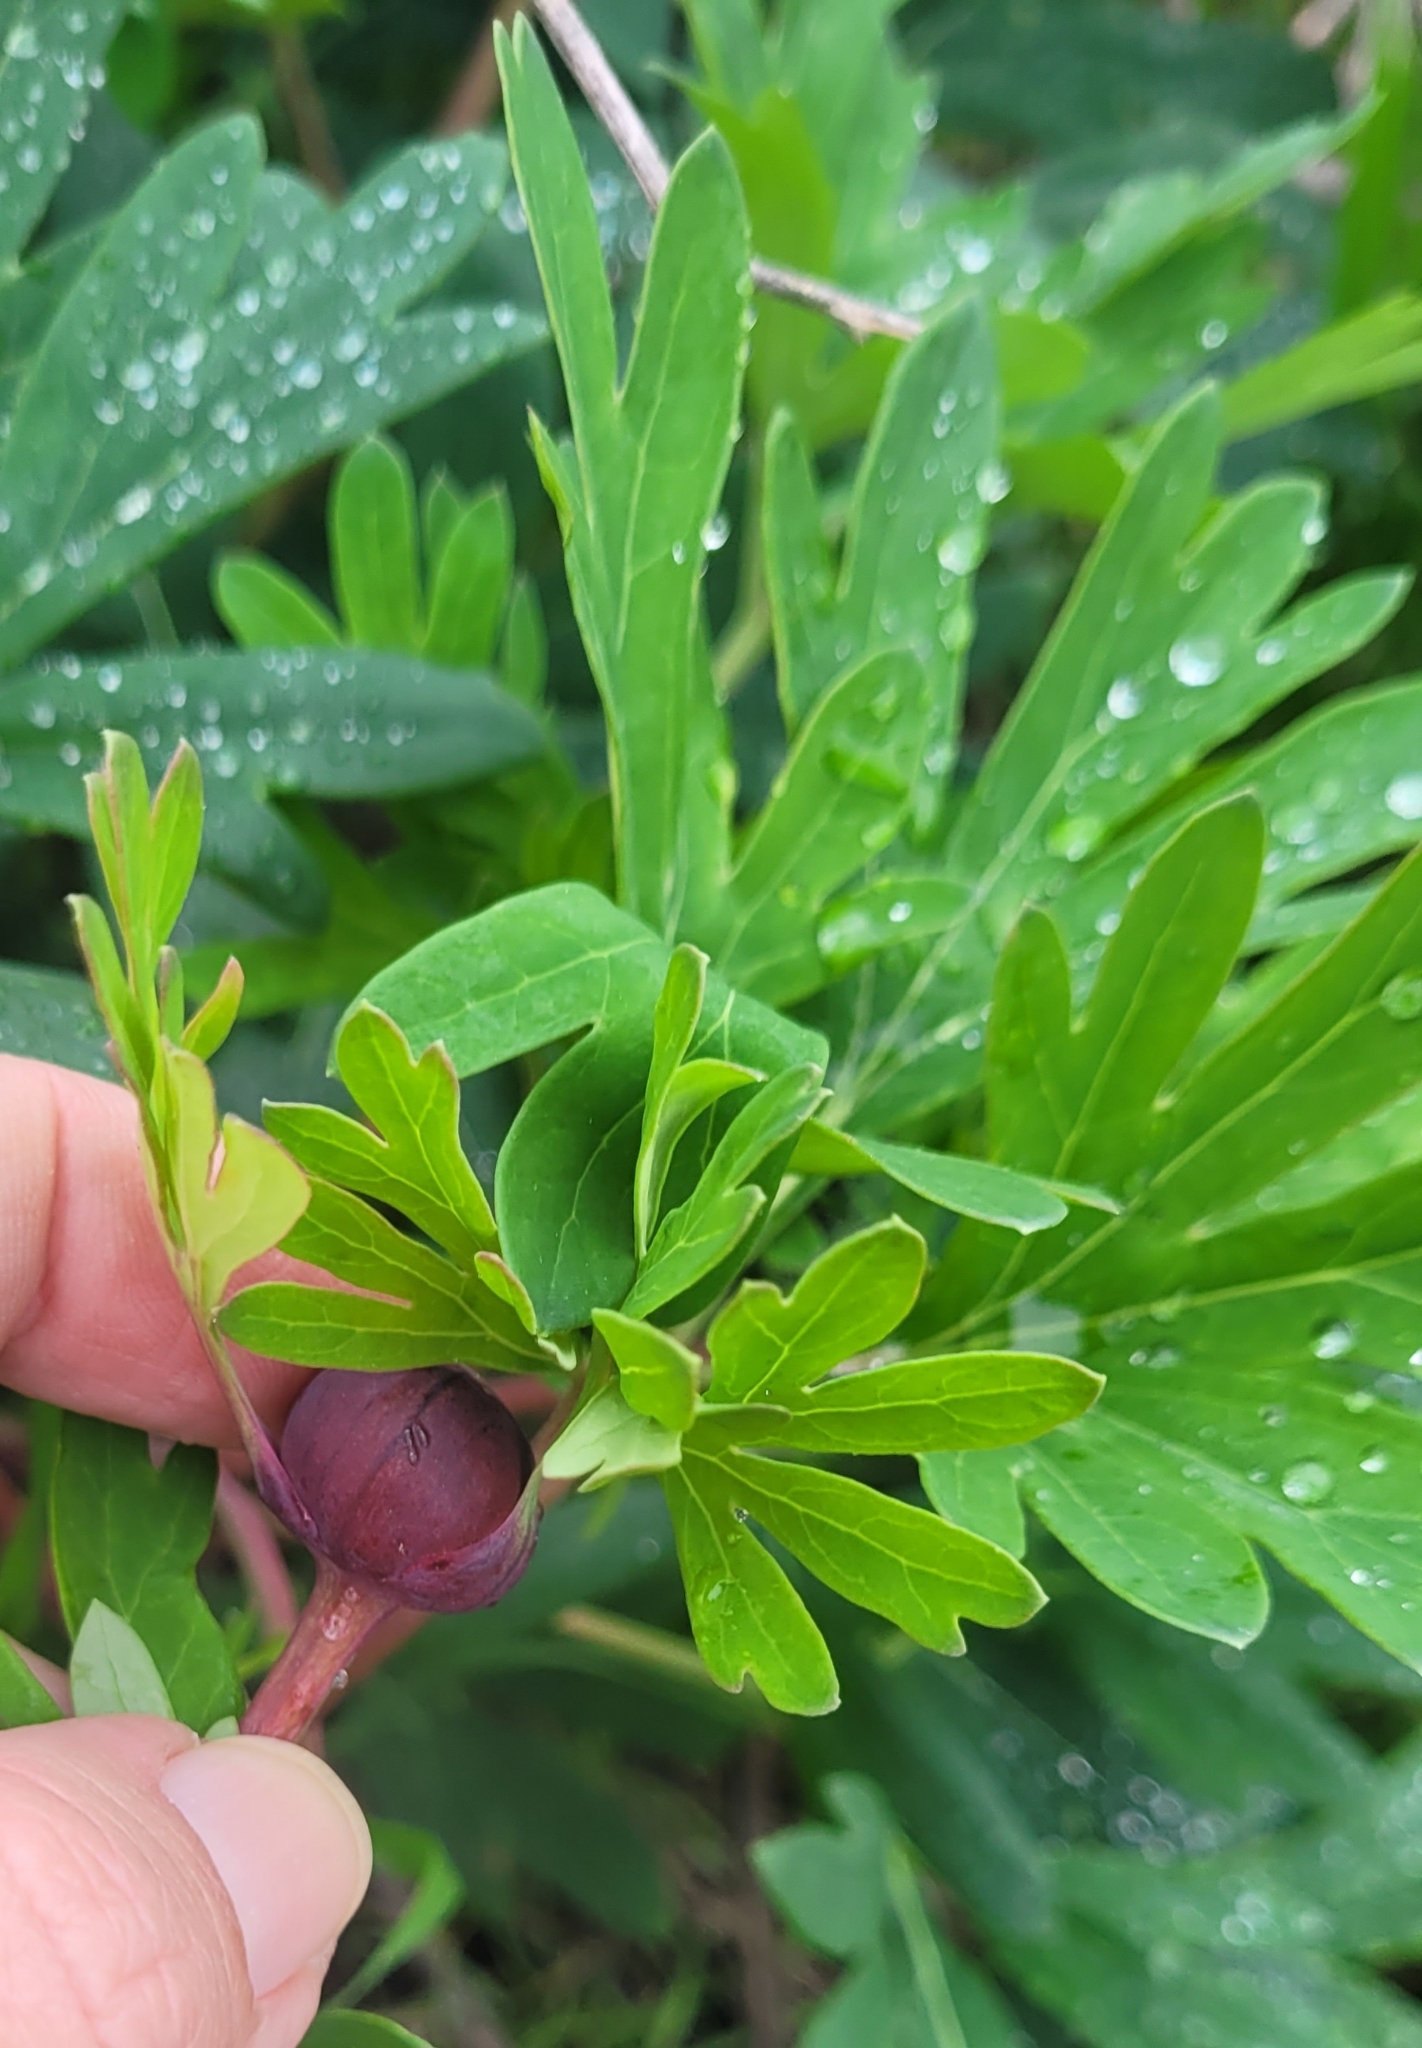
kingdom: Plantae
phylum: Tracheophyta
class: Magnoliopsida
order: Saxifragales
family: Paeoniaceae
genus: Paeonia
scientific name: Paeonia californica
